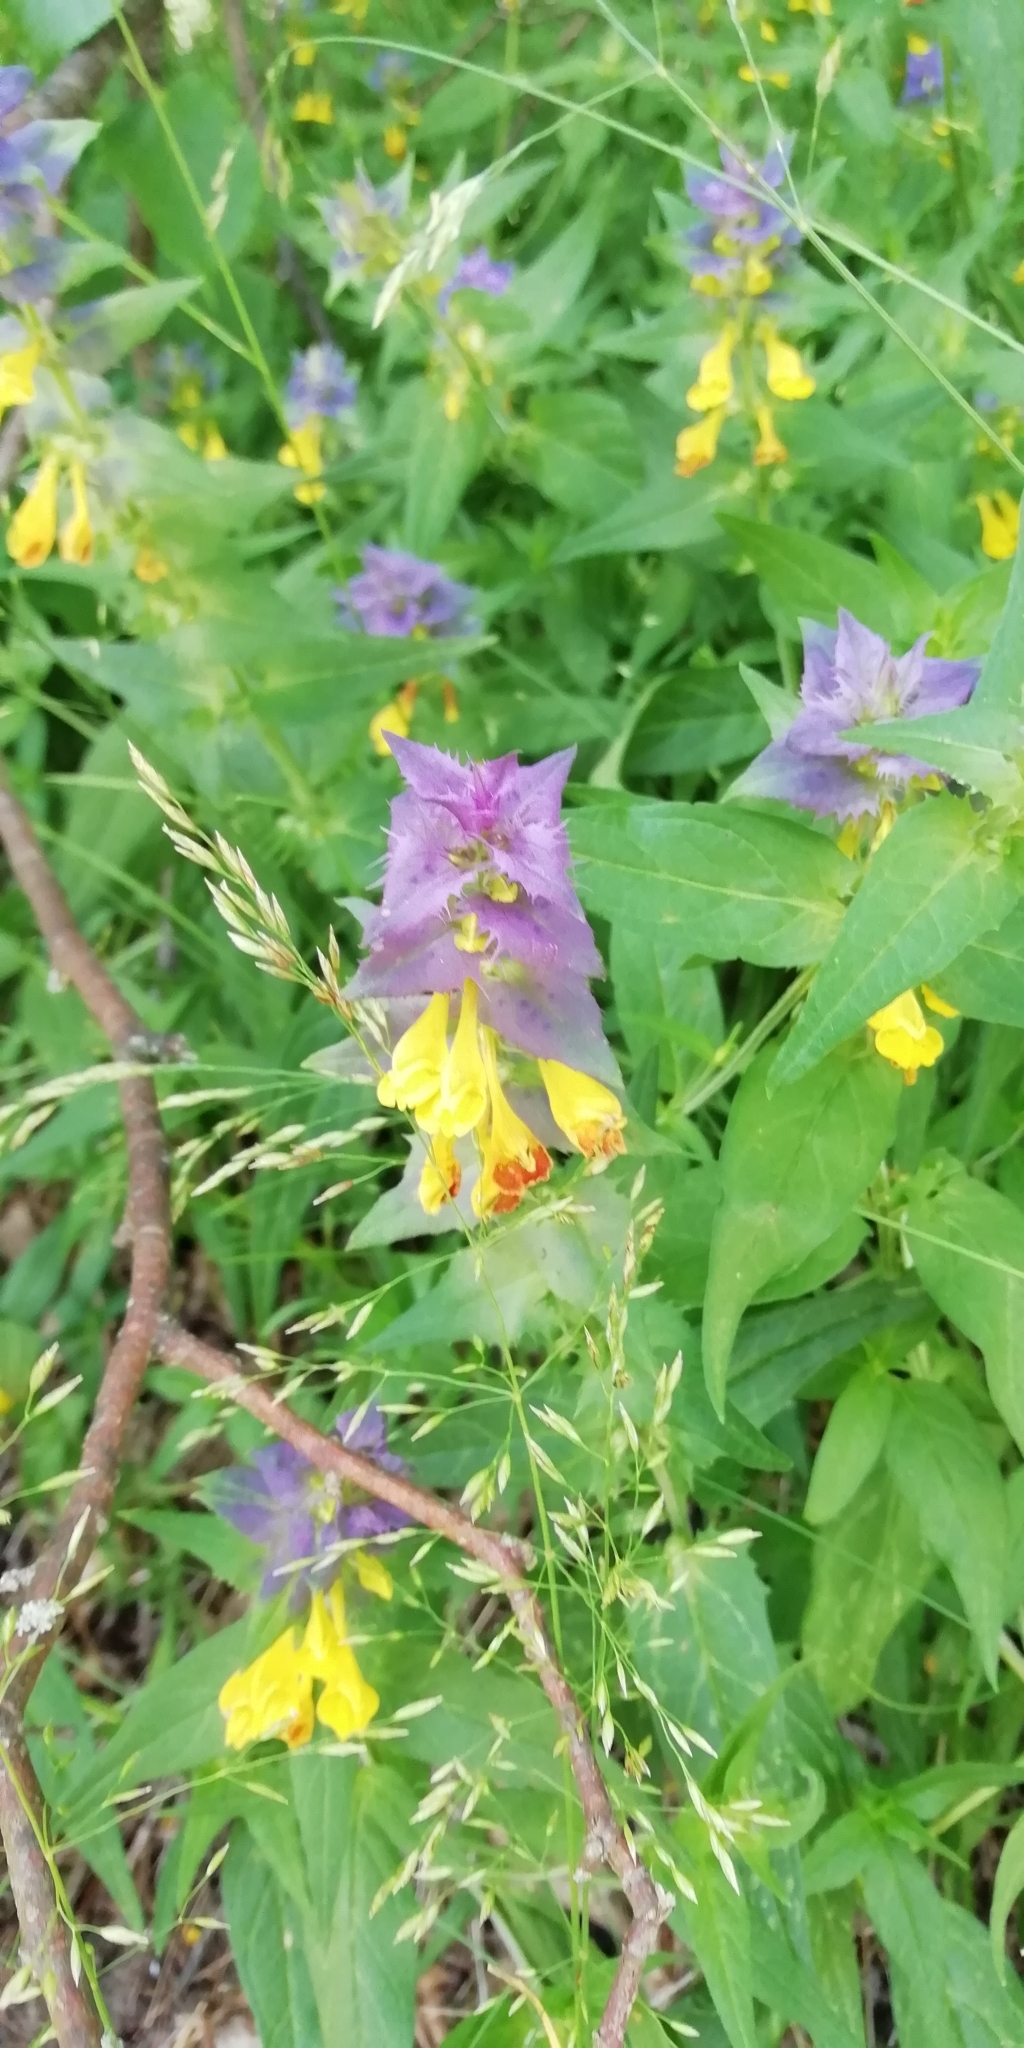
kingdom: Plantae
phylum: Tracheophyta
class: Magnoliopsida
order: Lamiales
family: Orobanchaceae
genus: Melampyrum
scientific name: Melampyrum nemorosum
